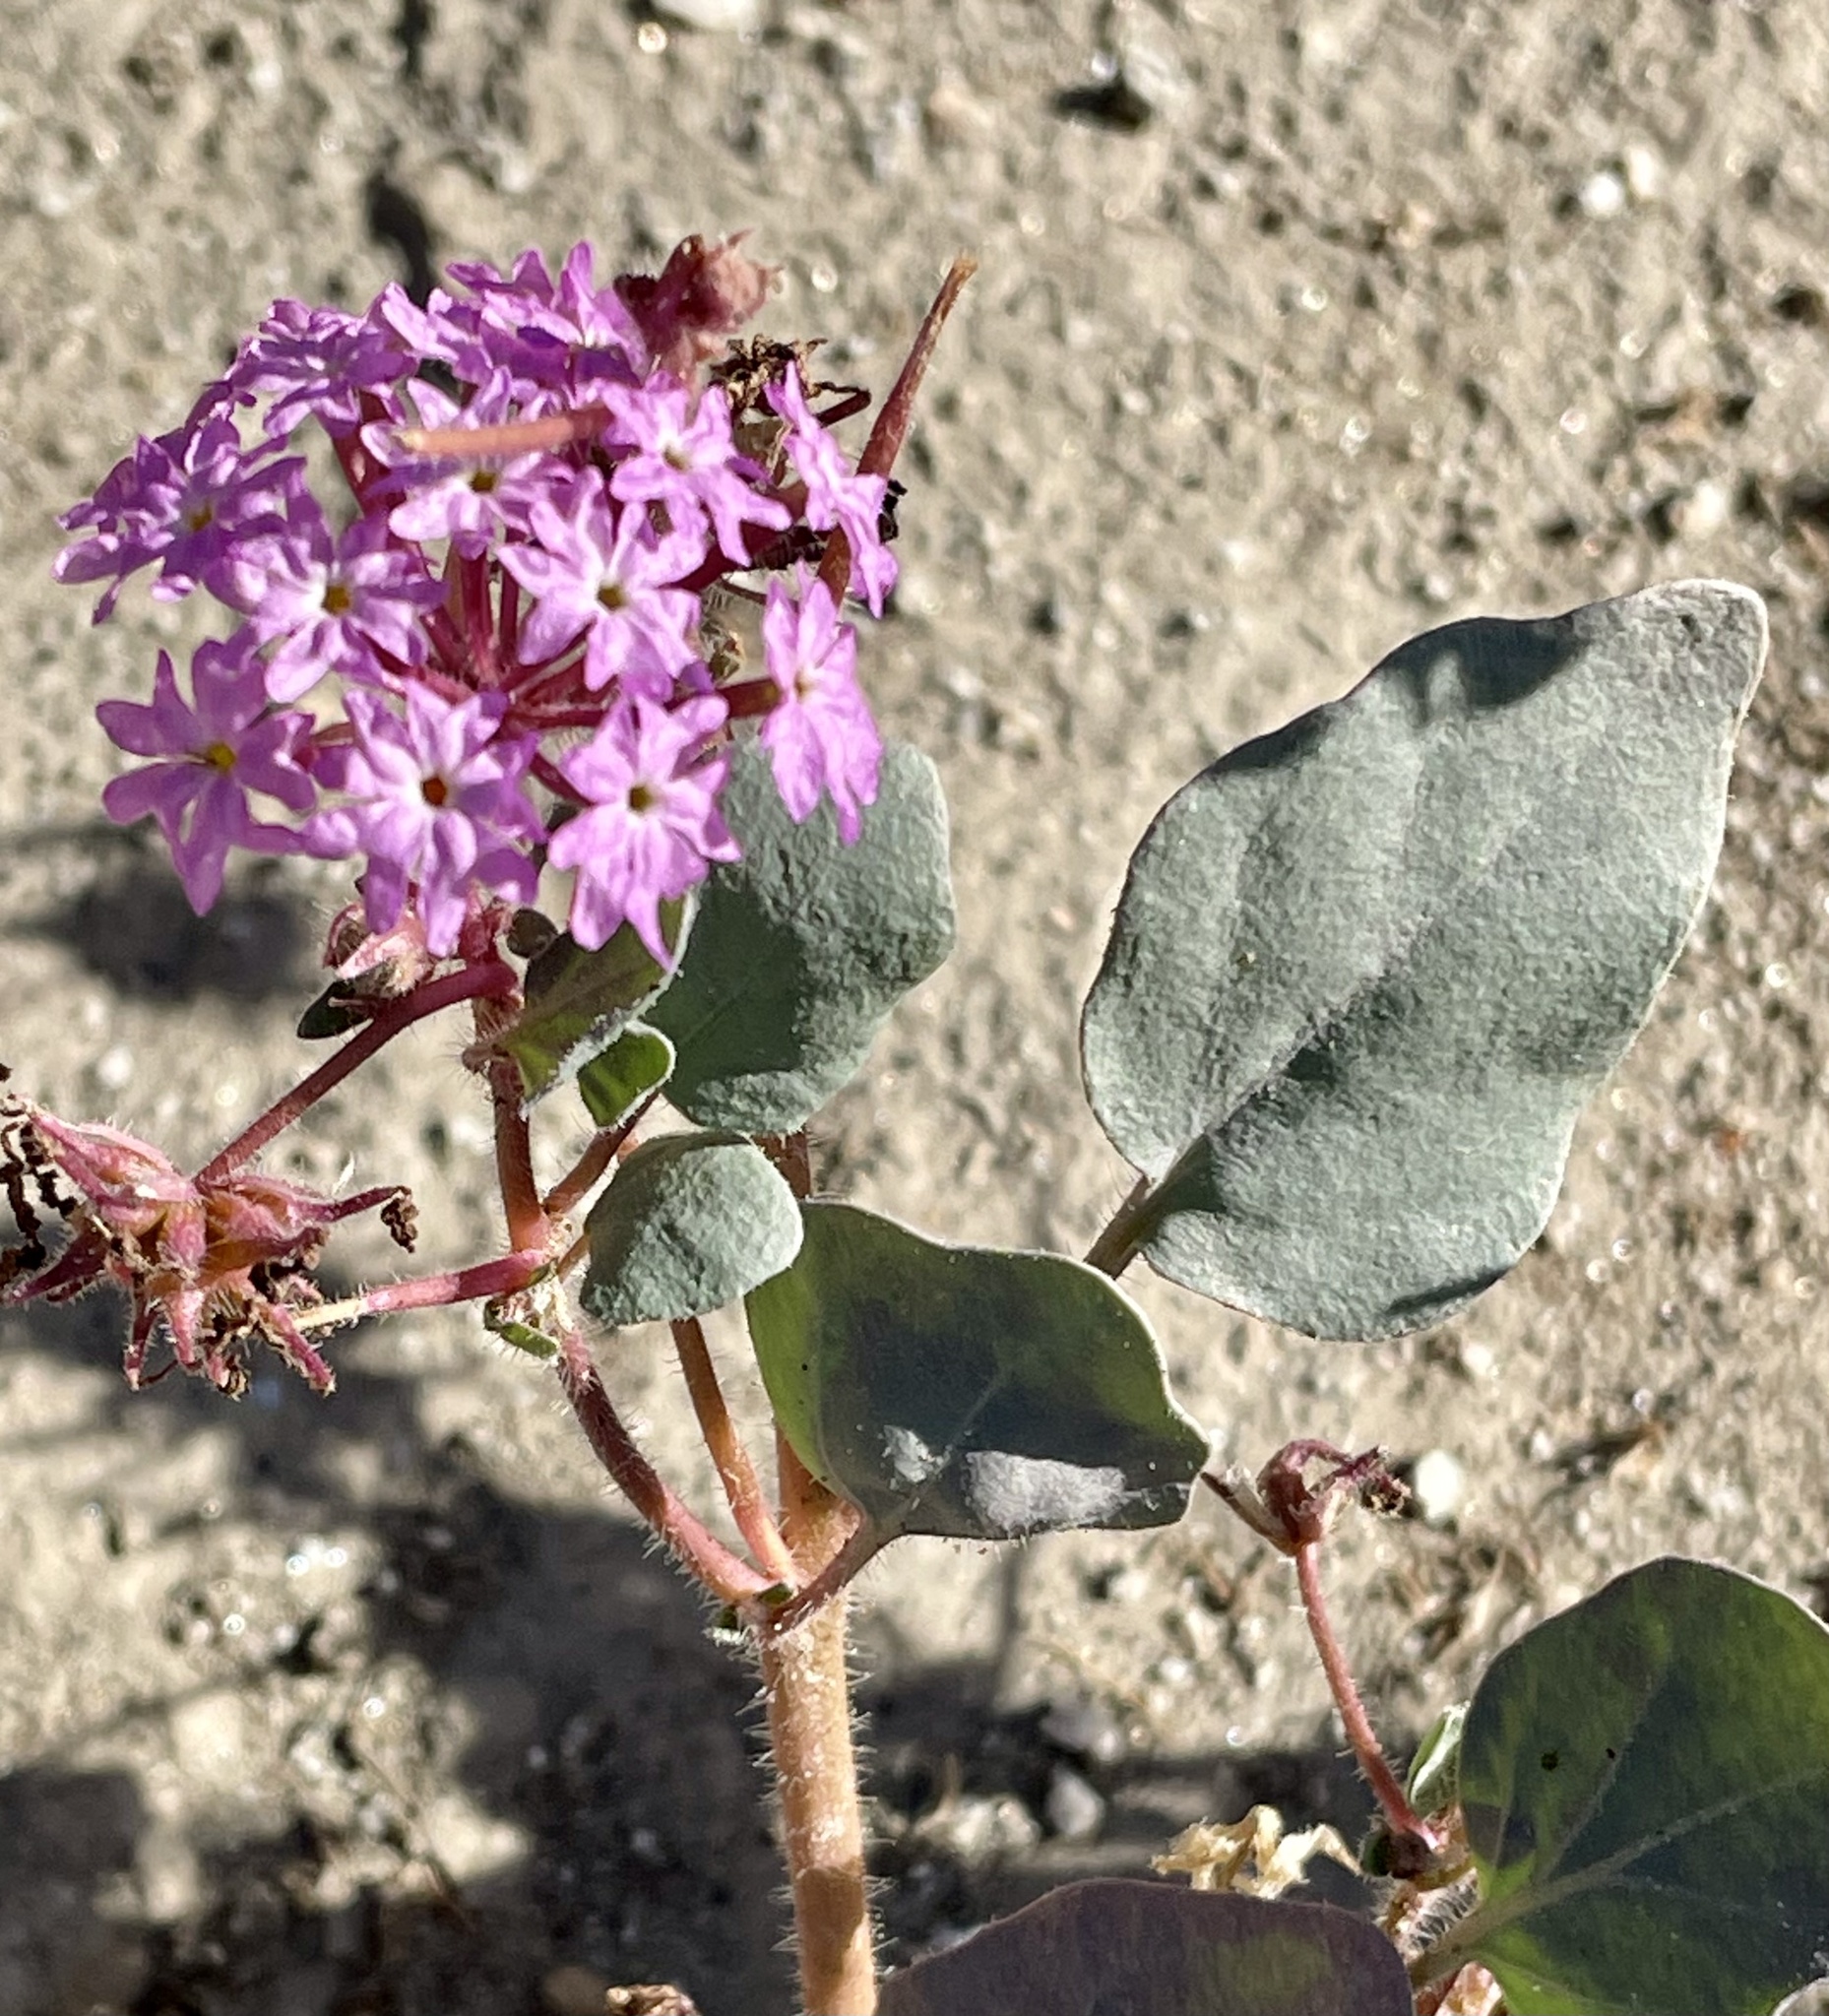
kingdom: Plantae
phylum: Tracheophyta
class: Magnoliopsida
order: Caryophyllales
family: Nyctaginaceae
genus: Abronia
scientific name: Abronia villosa
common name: Desert sand-verbena
